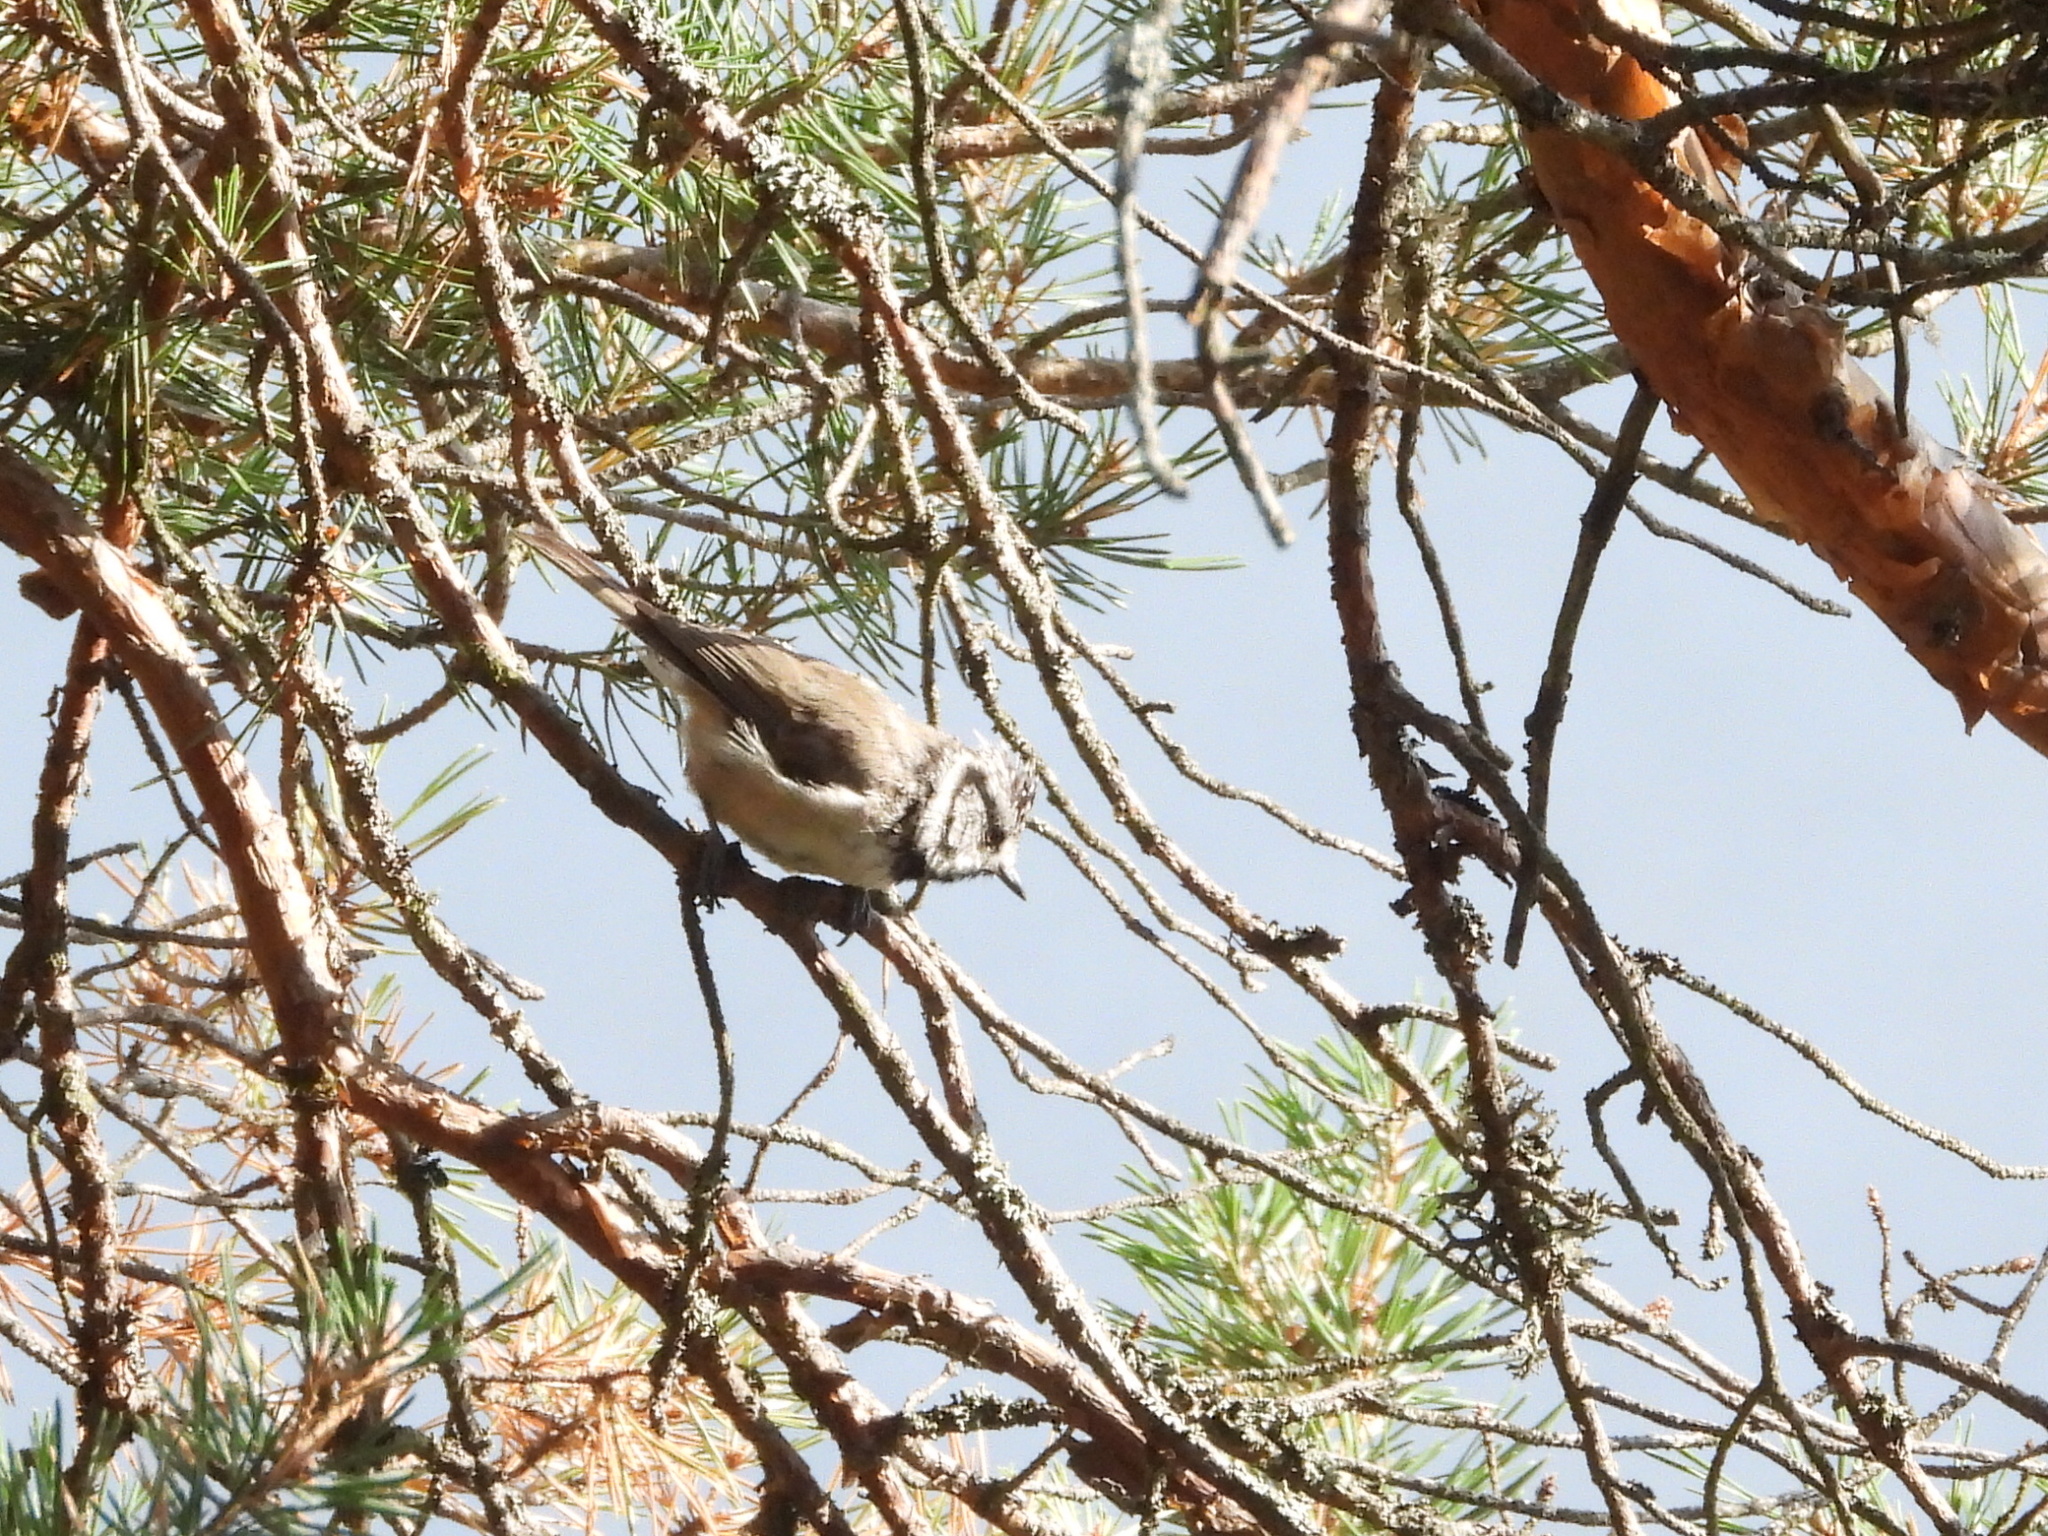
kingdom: Animalia
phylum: Chordata
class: Aves
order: Passeriformes
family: Paridae
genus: Lophophanes
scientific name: Lophophanes cristatus
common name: European crested tit
